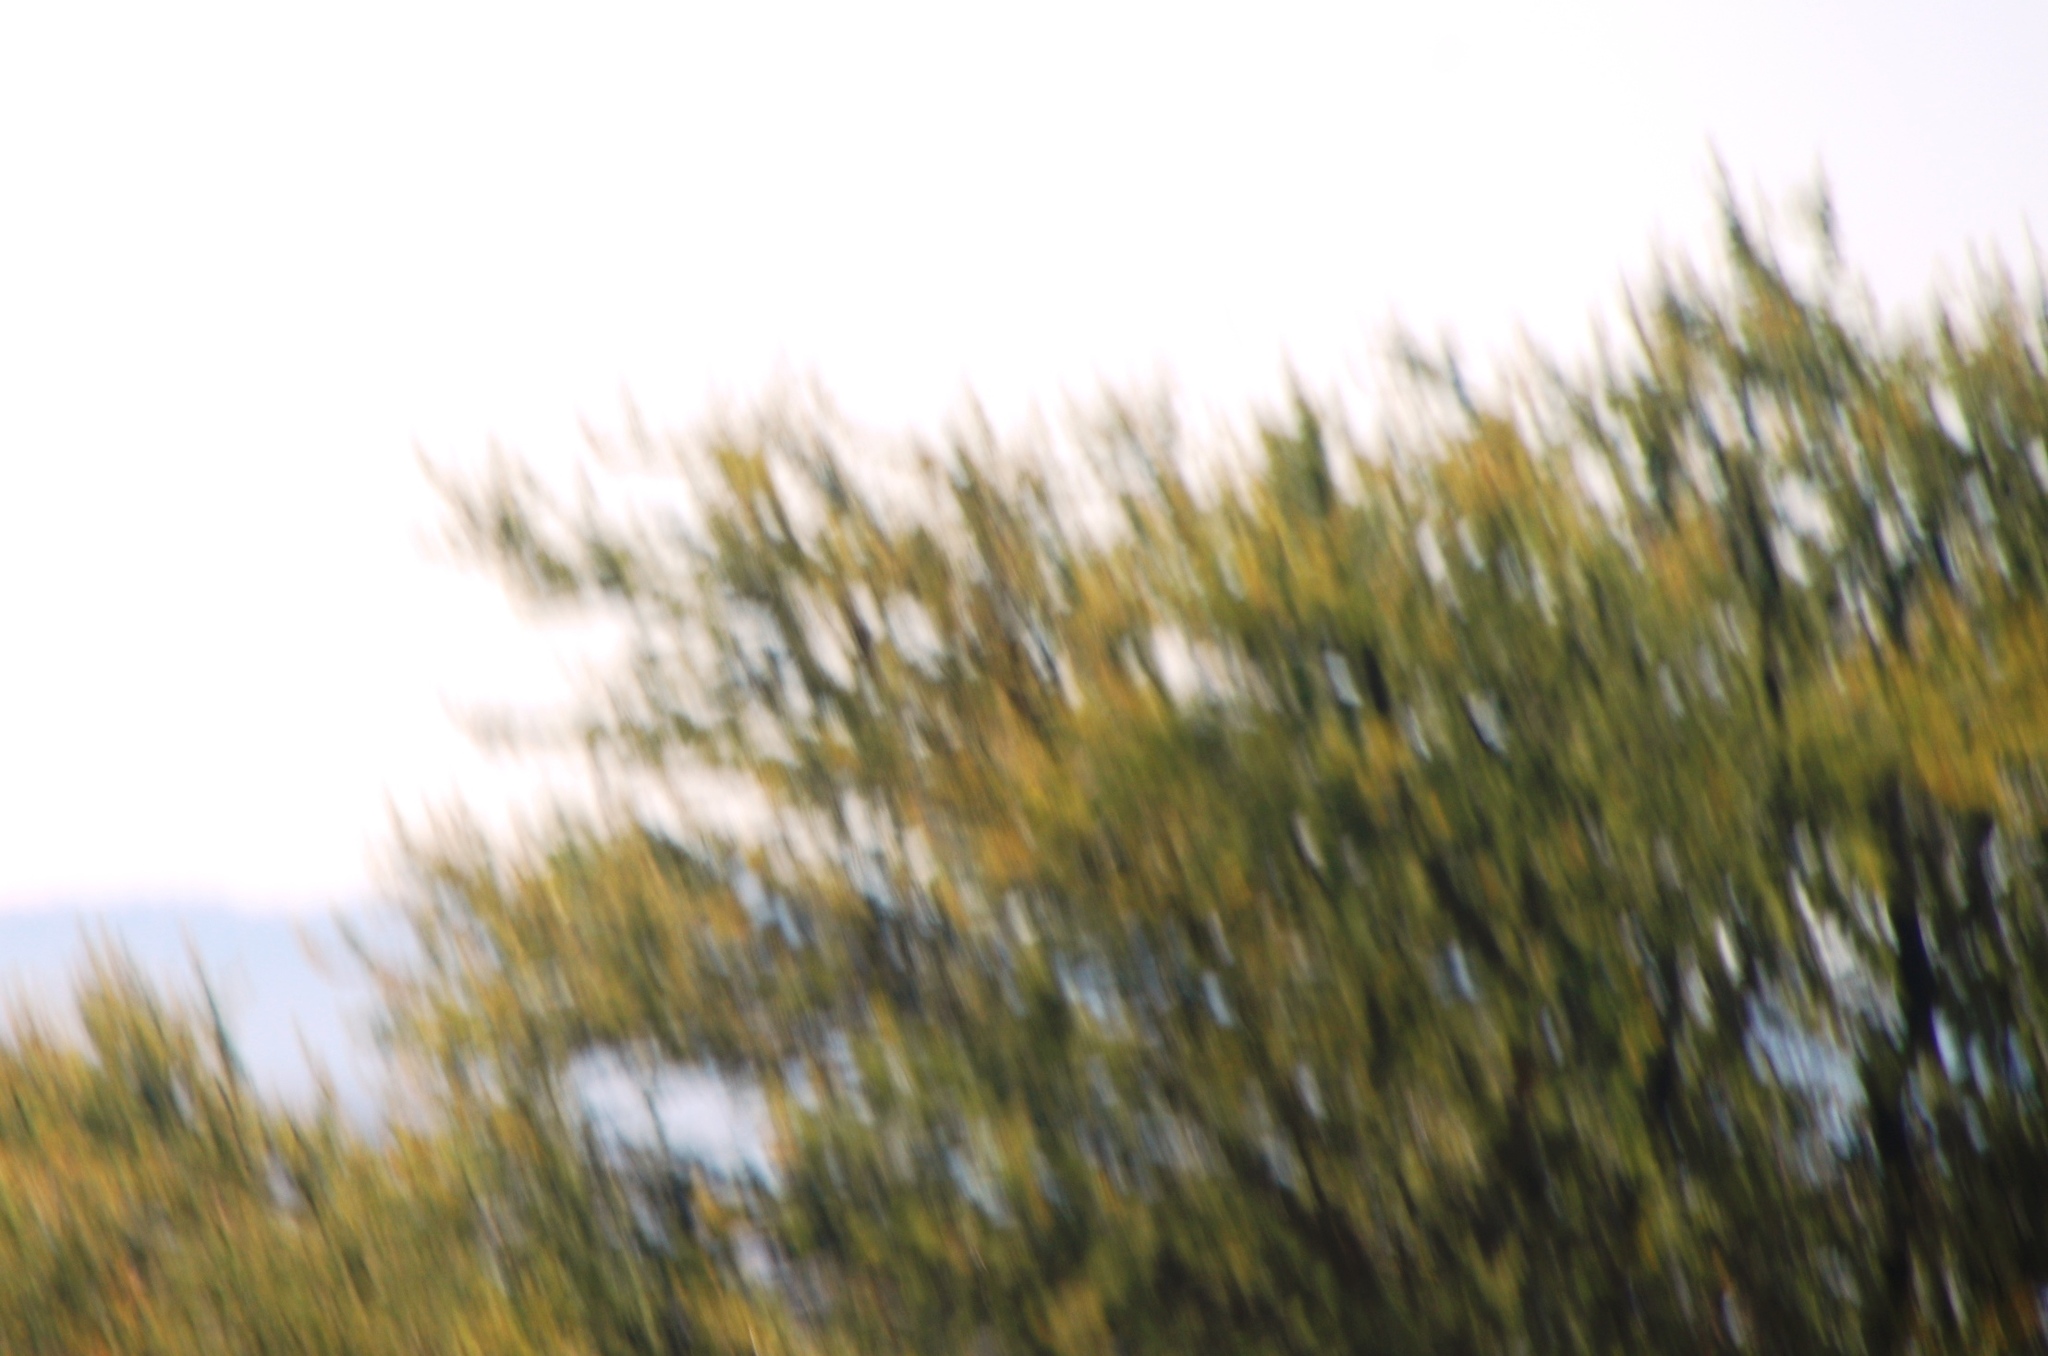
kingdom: Plantae
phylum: Tracheophyta
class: Magnoliopsida
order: Fabales
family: Fabaceae
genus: Vachellia
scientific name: Vachellia karroo
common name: Sweet thorn
